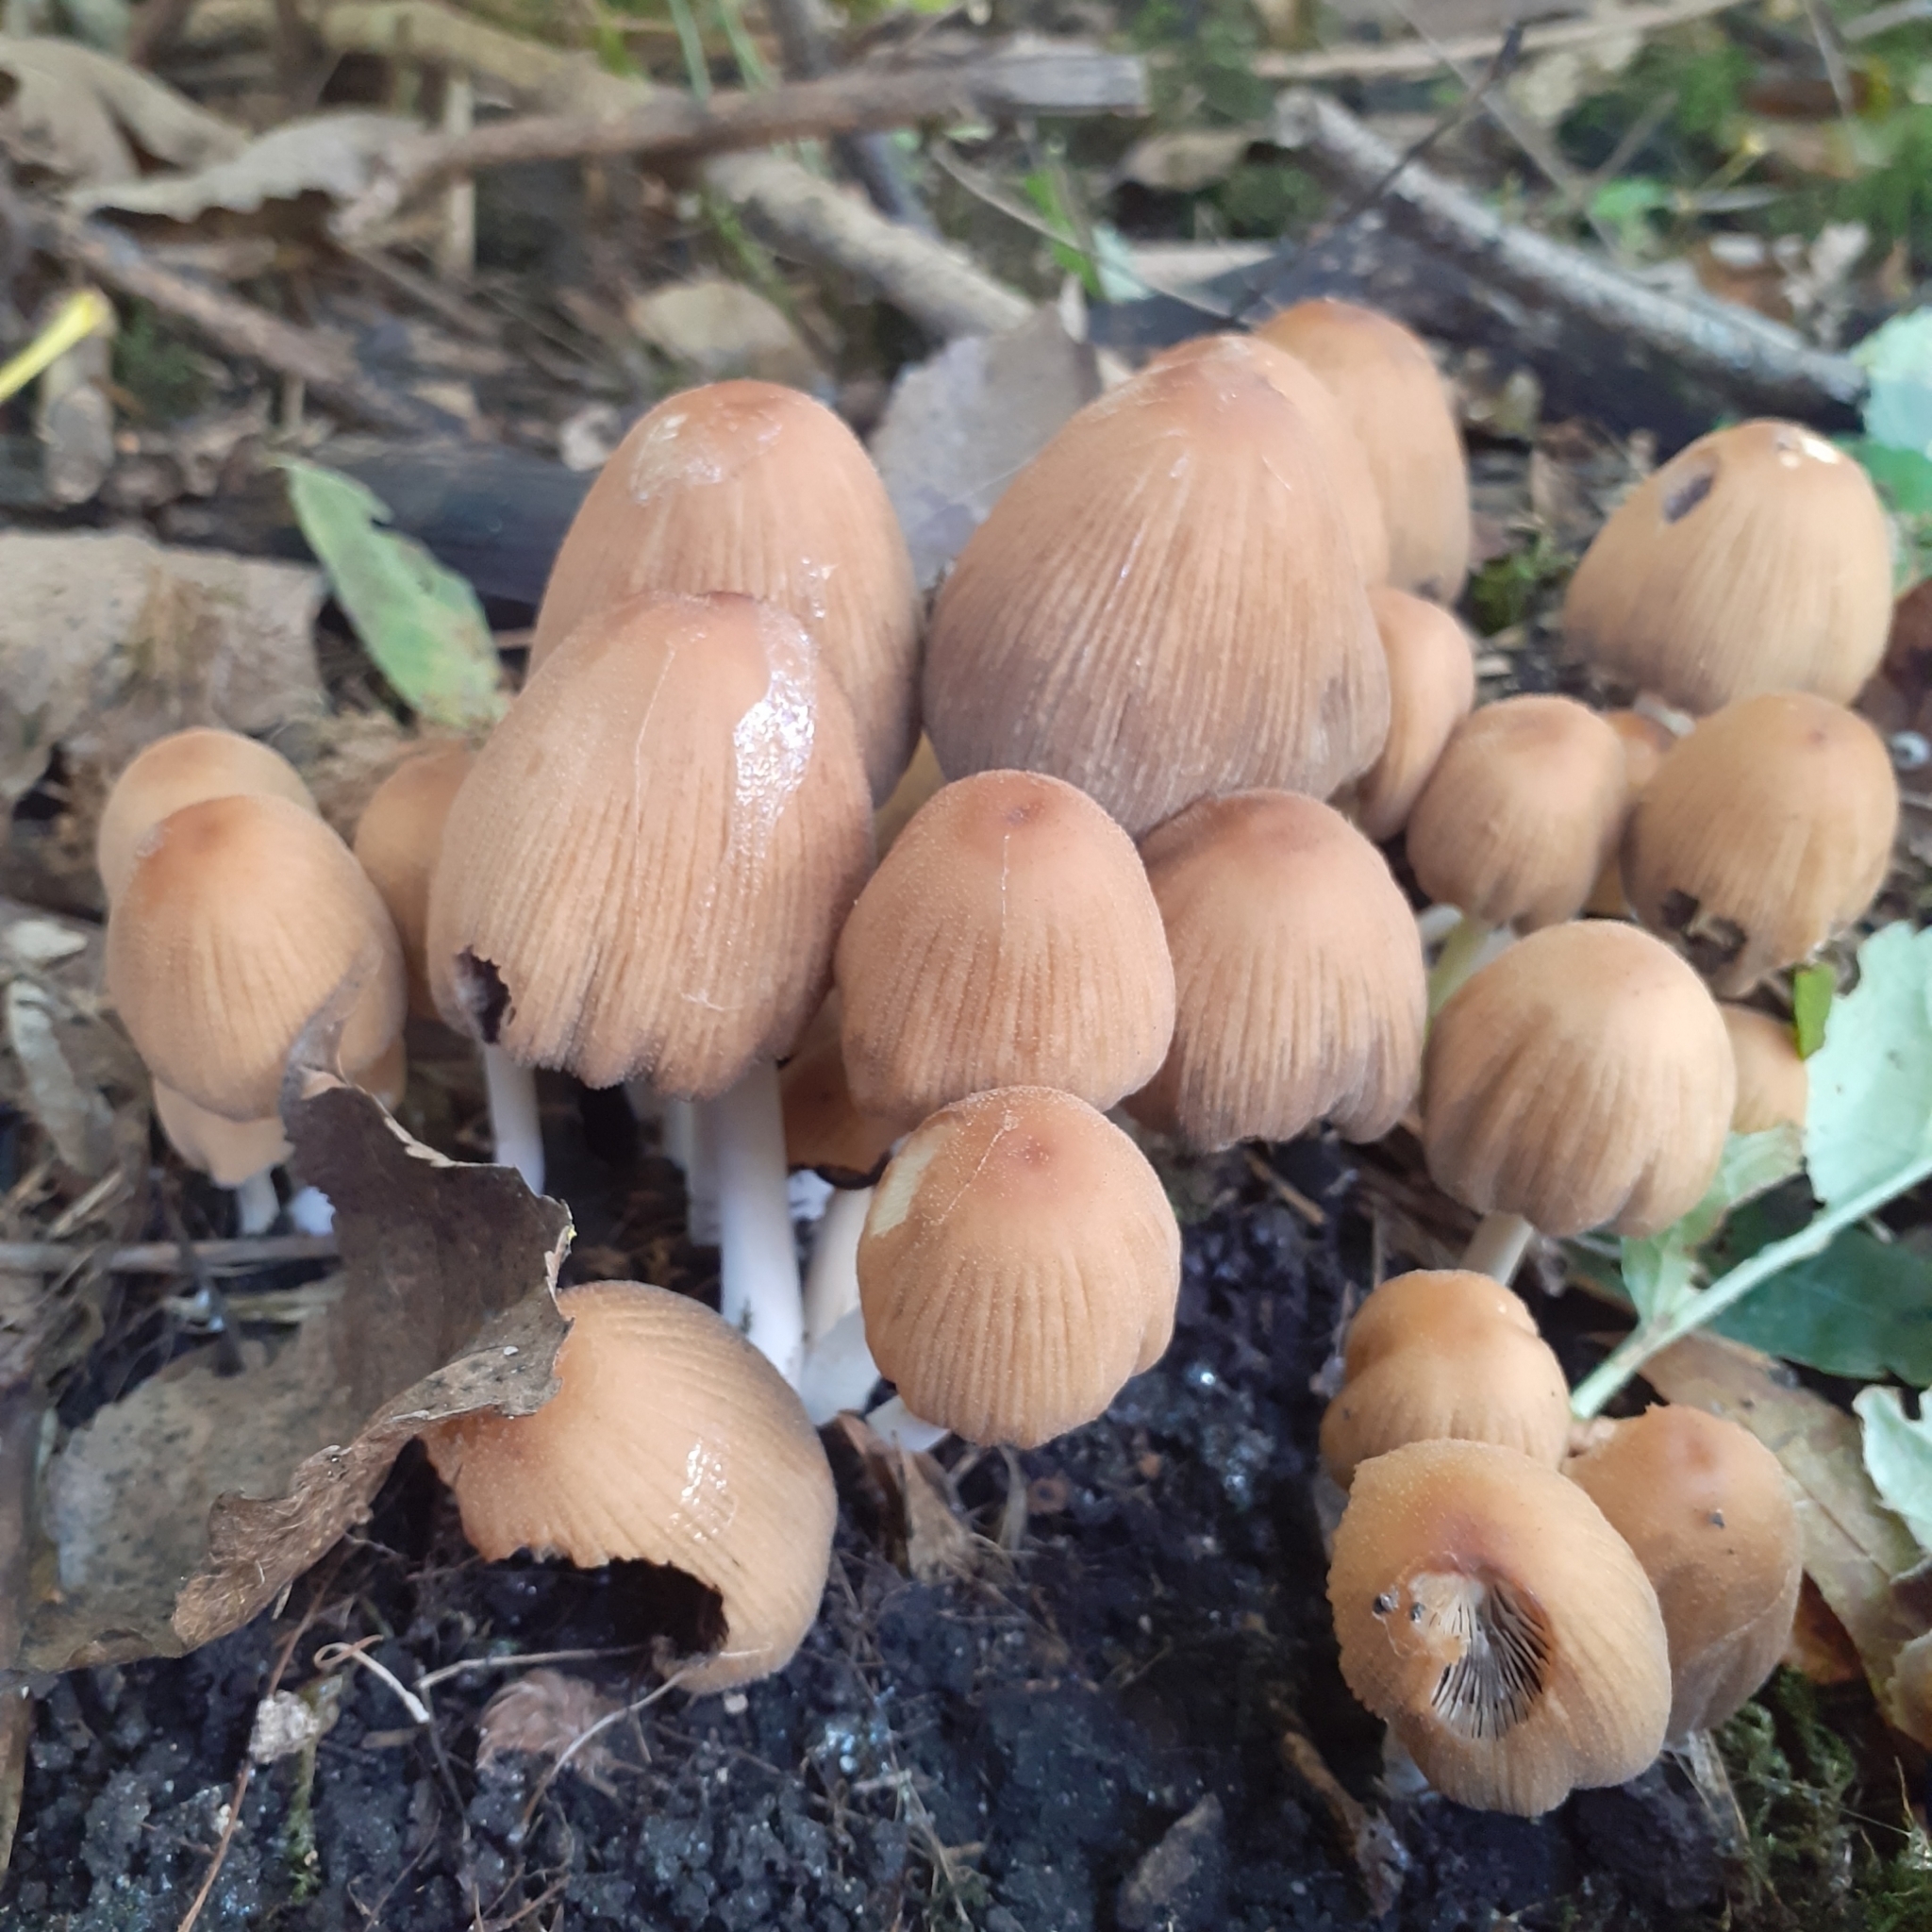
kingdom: Fungi
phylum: Basidiomycota
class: Agaricomycetes
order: Agaricales
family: Psathyrellaceae
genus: Coprinellus
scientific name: Coprinellus micaceus
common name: Glistening ink-cap
